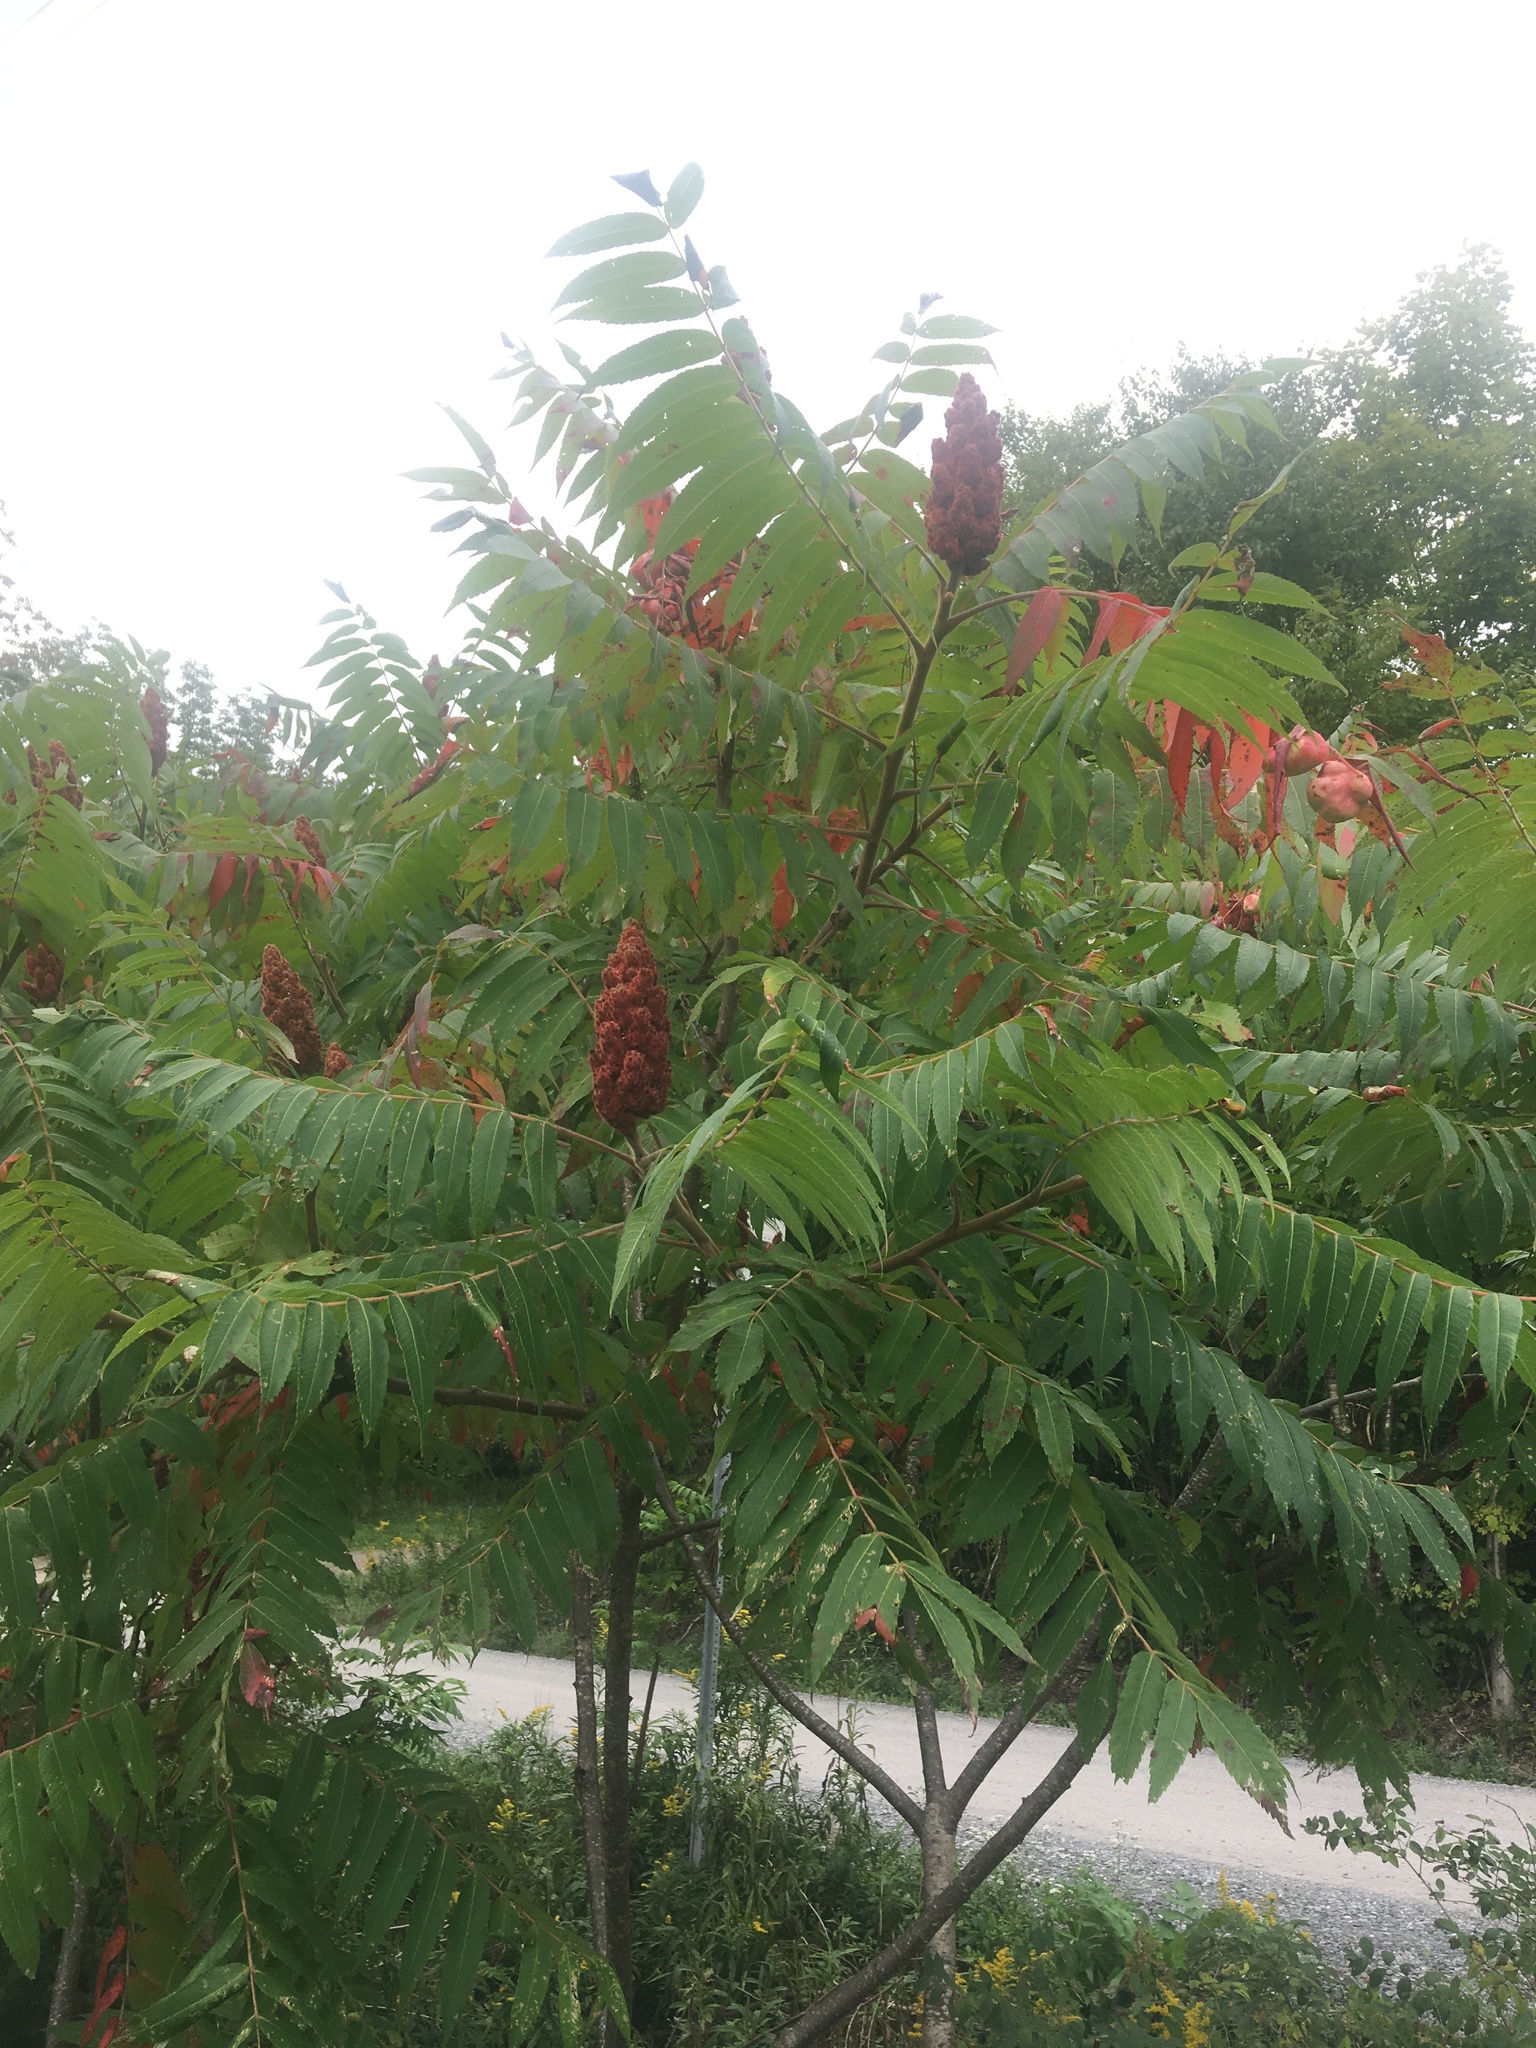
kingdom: Plantae
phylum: Tracheophyta
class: Magnoliopsida
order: Sapindales
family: Anacardiaceae
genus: Rhus
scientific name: Rhus typhina
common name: Staghorn sumac
